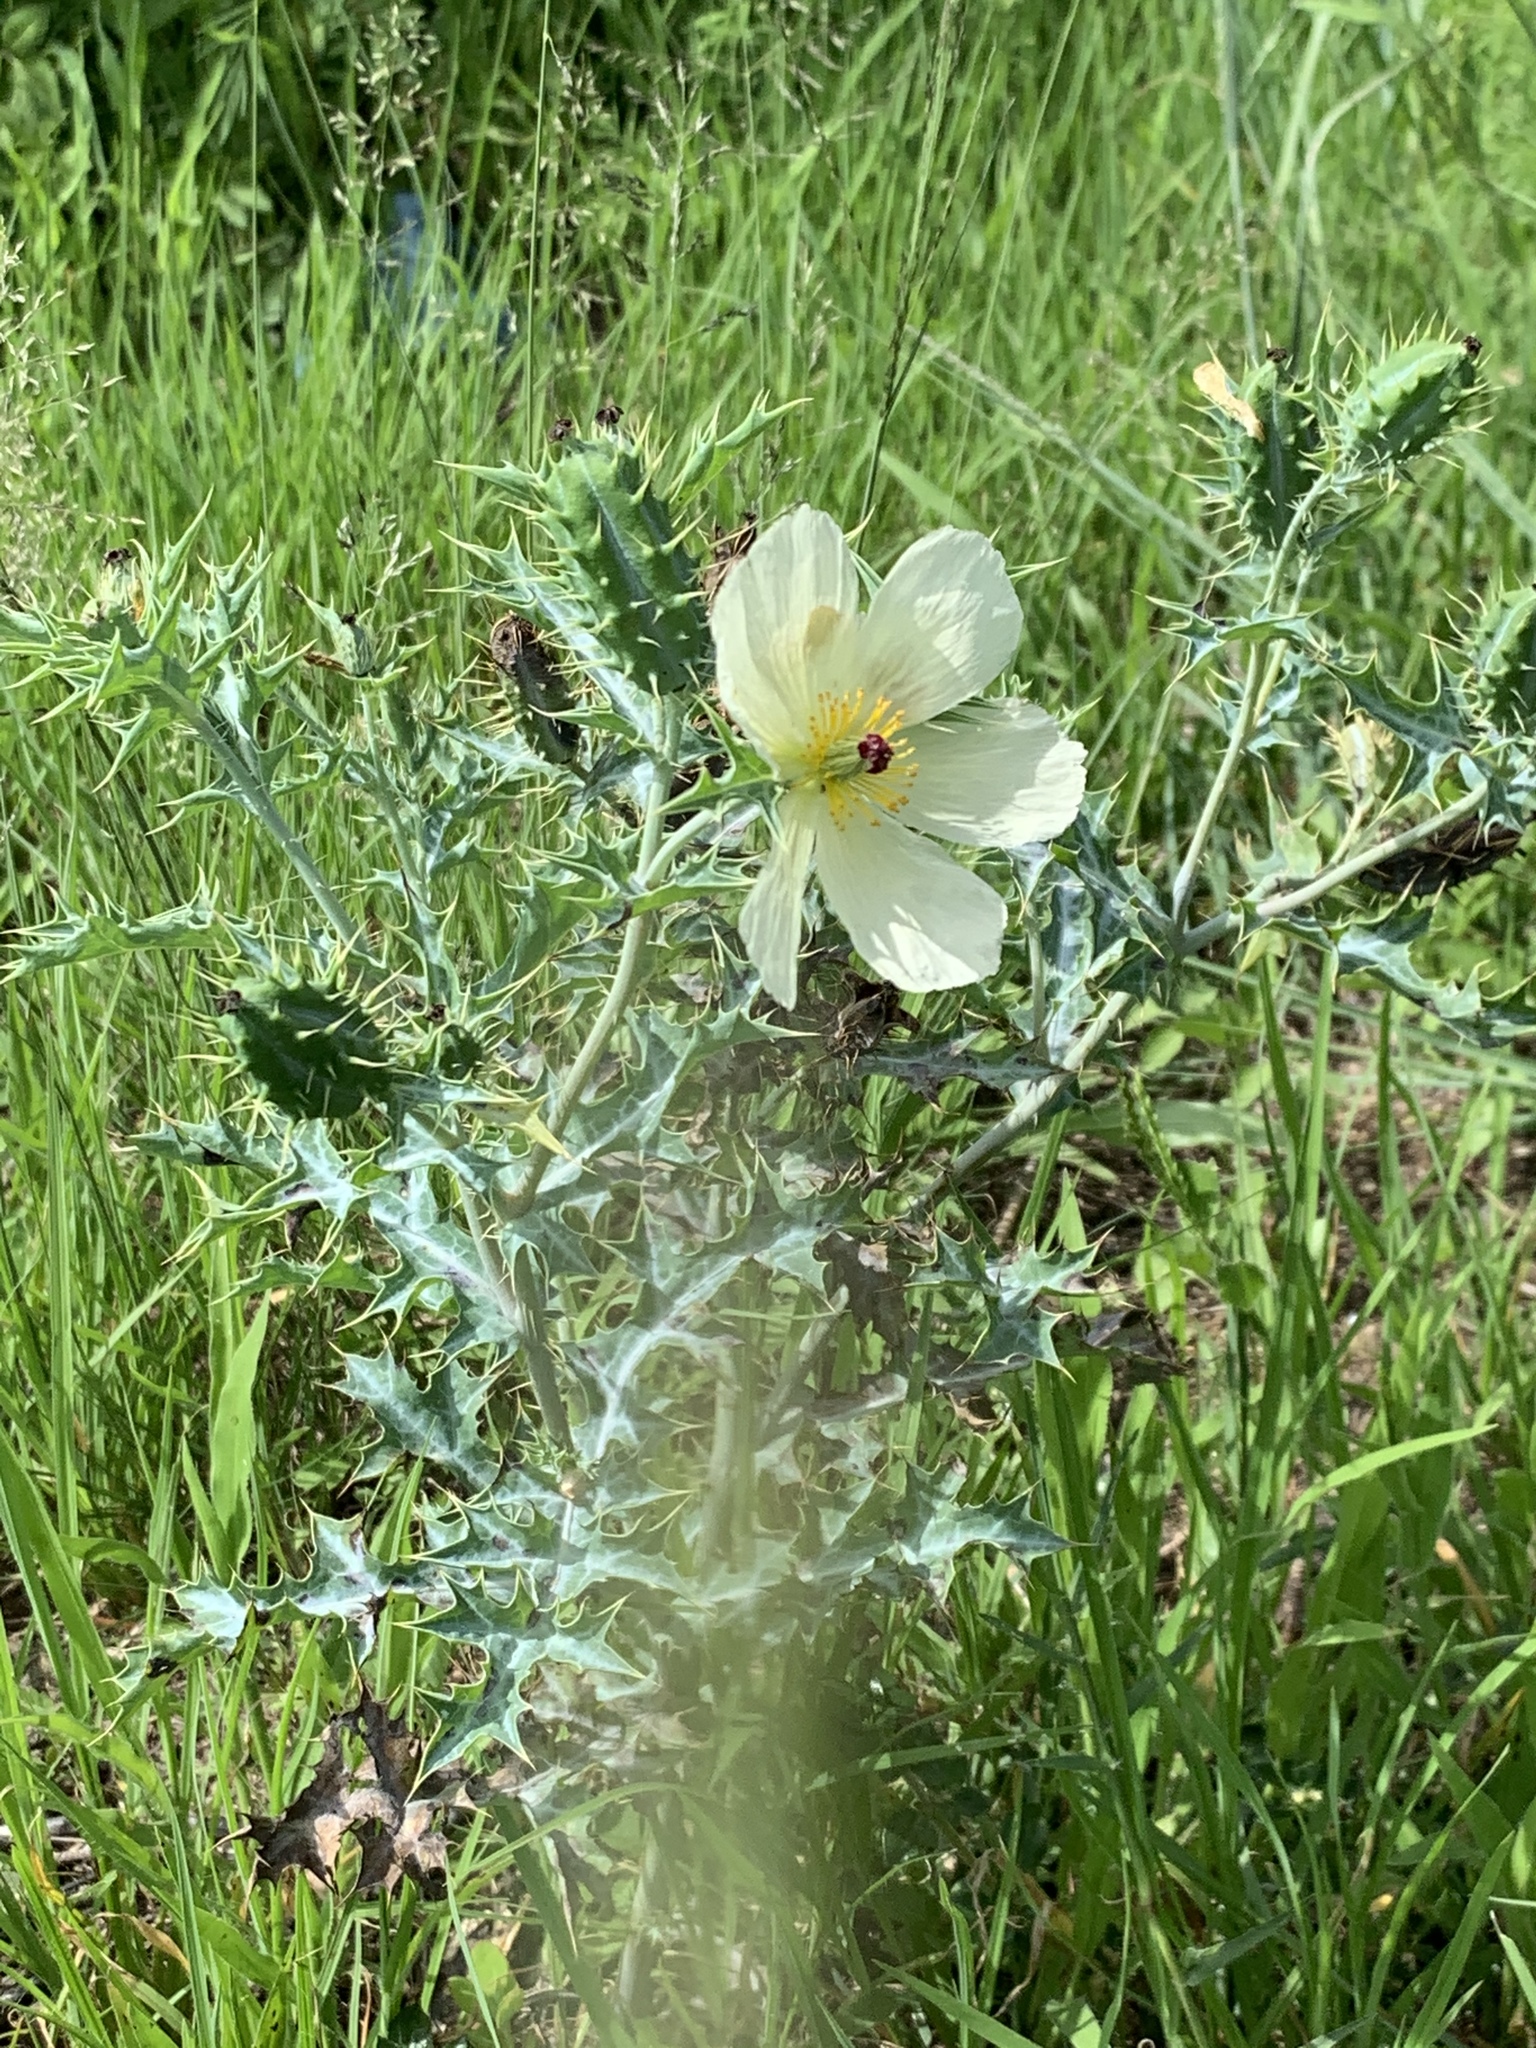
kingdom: Plantae
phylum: Tracheophyta
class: Magnoliopsida
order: Ranunculales
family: Papaveraceae
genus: Argemone
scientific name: Argemone ochroleuca
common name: White-flower mexican-poppy
